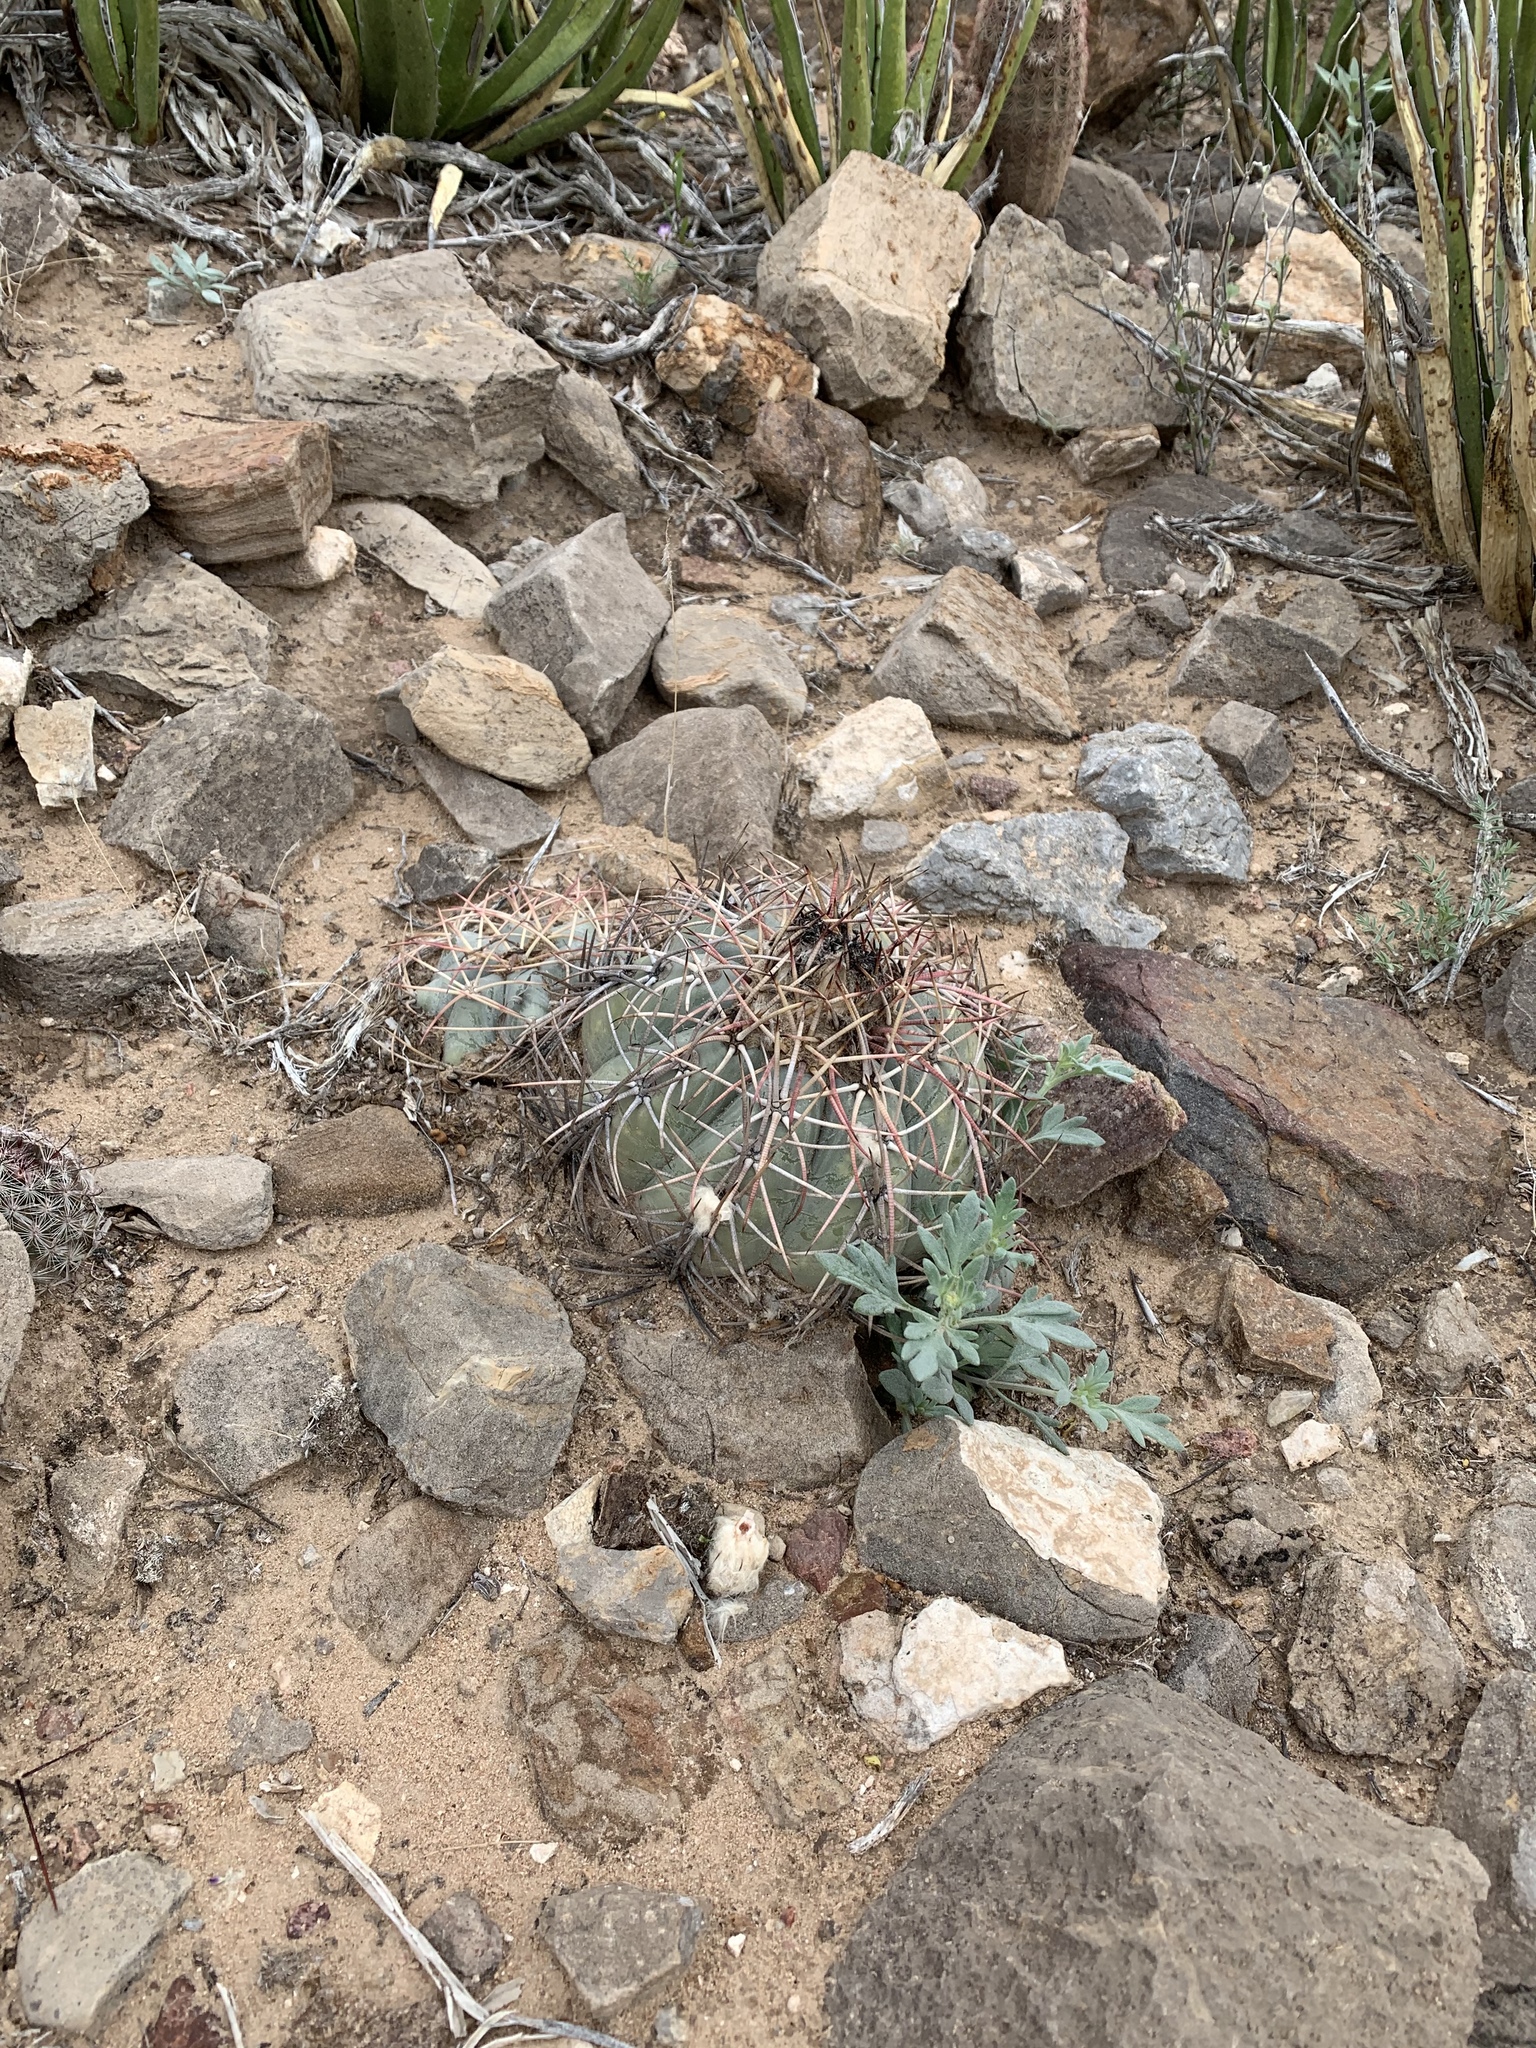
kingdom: Plantae
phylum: Tracheophyta
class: Magnoliopsida
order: Caryophyllales
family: Cactaceae
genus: Echinocactus
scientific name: Echinocactus horizonthalonius
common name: Devilshead
